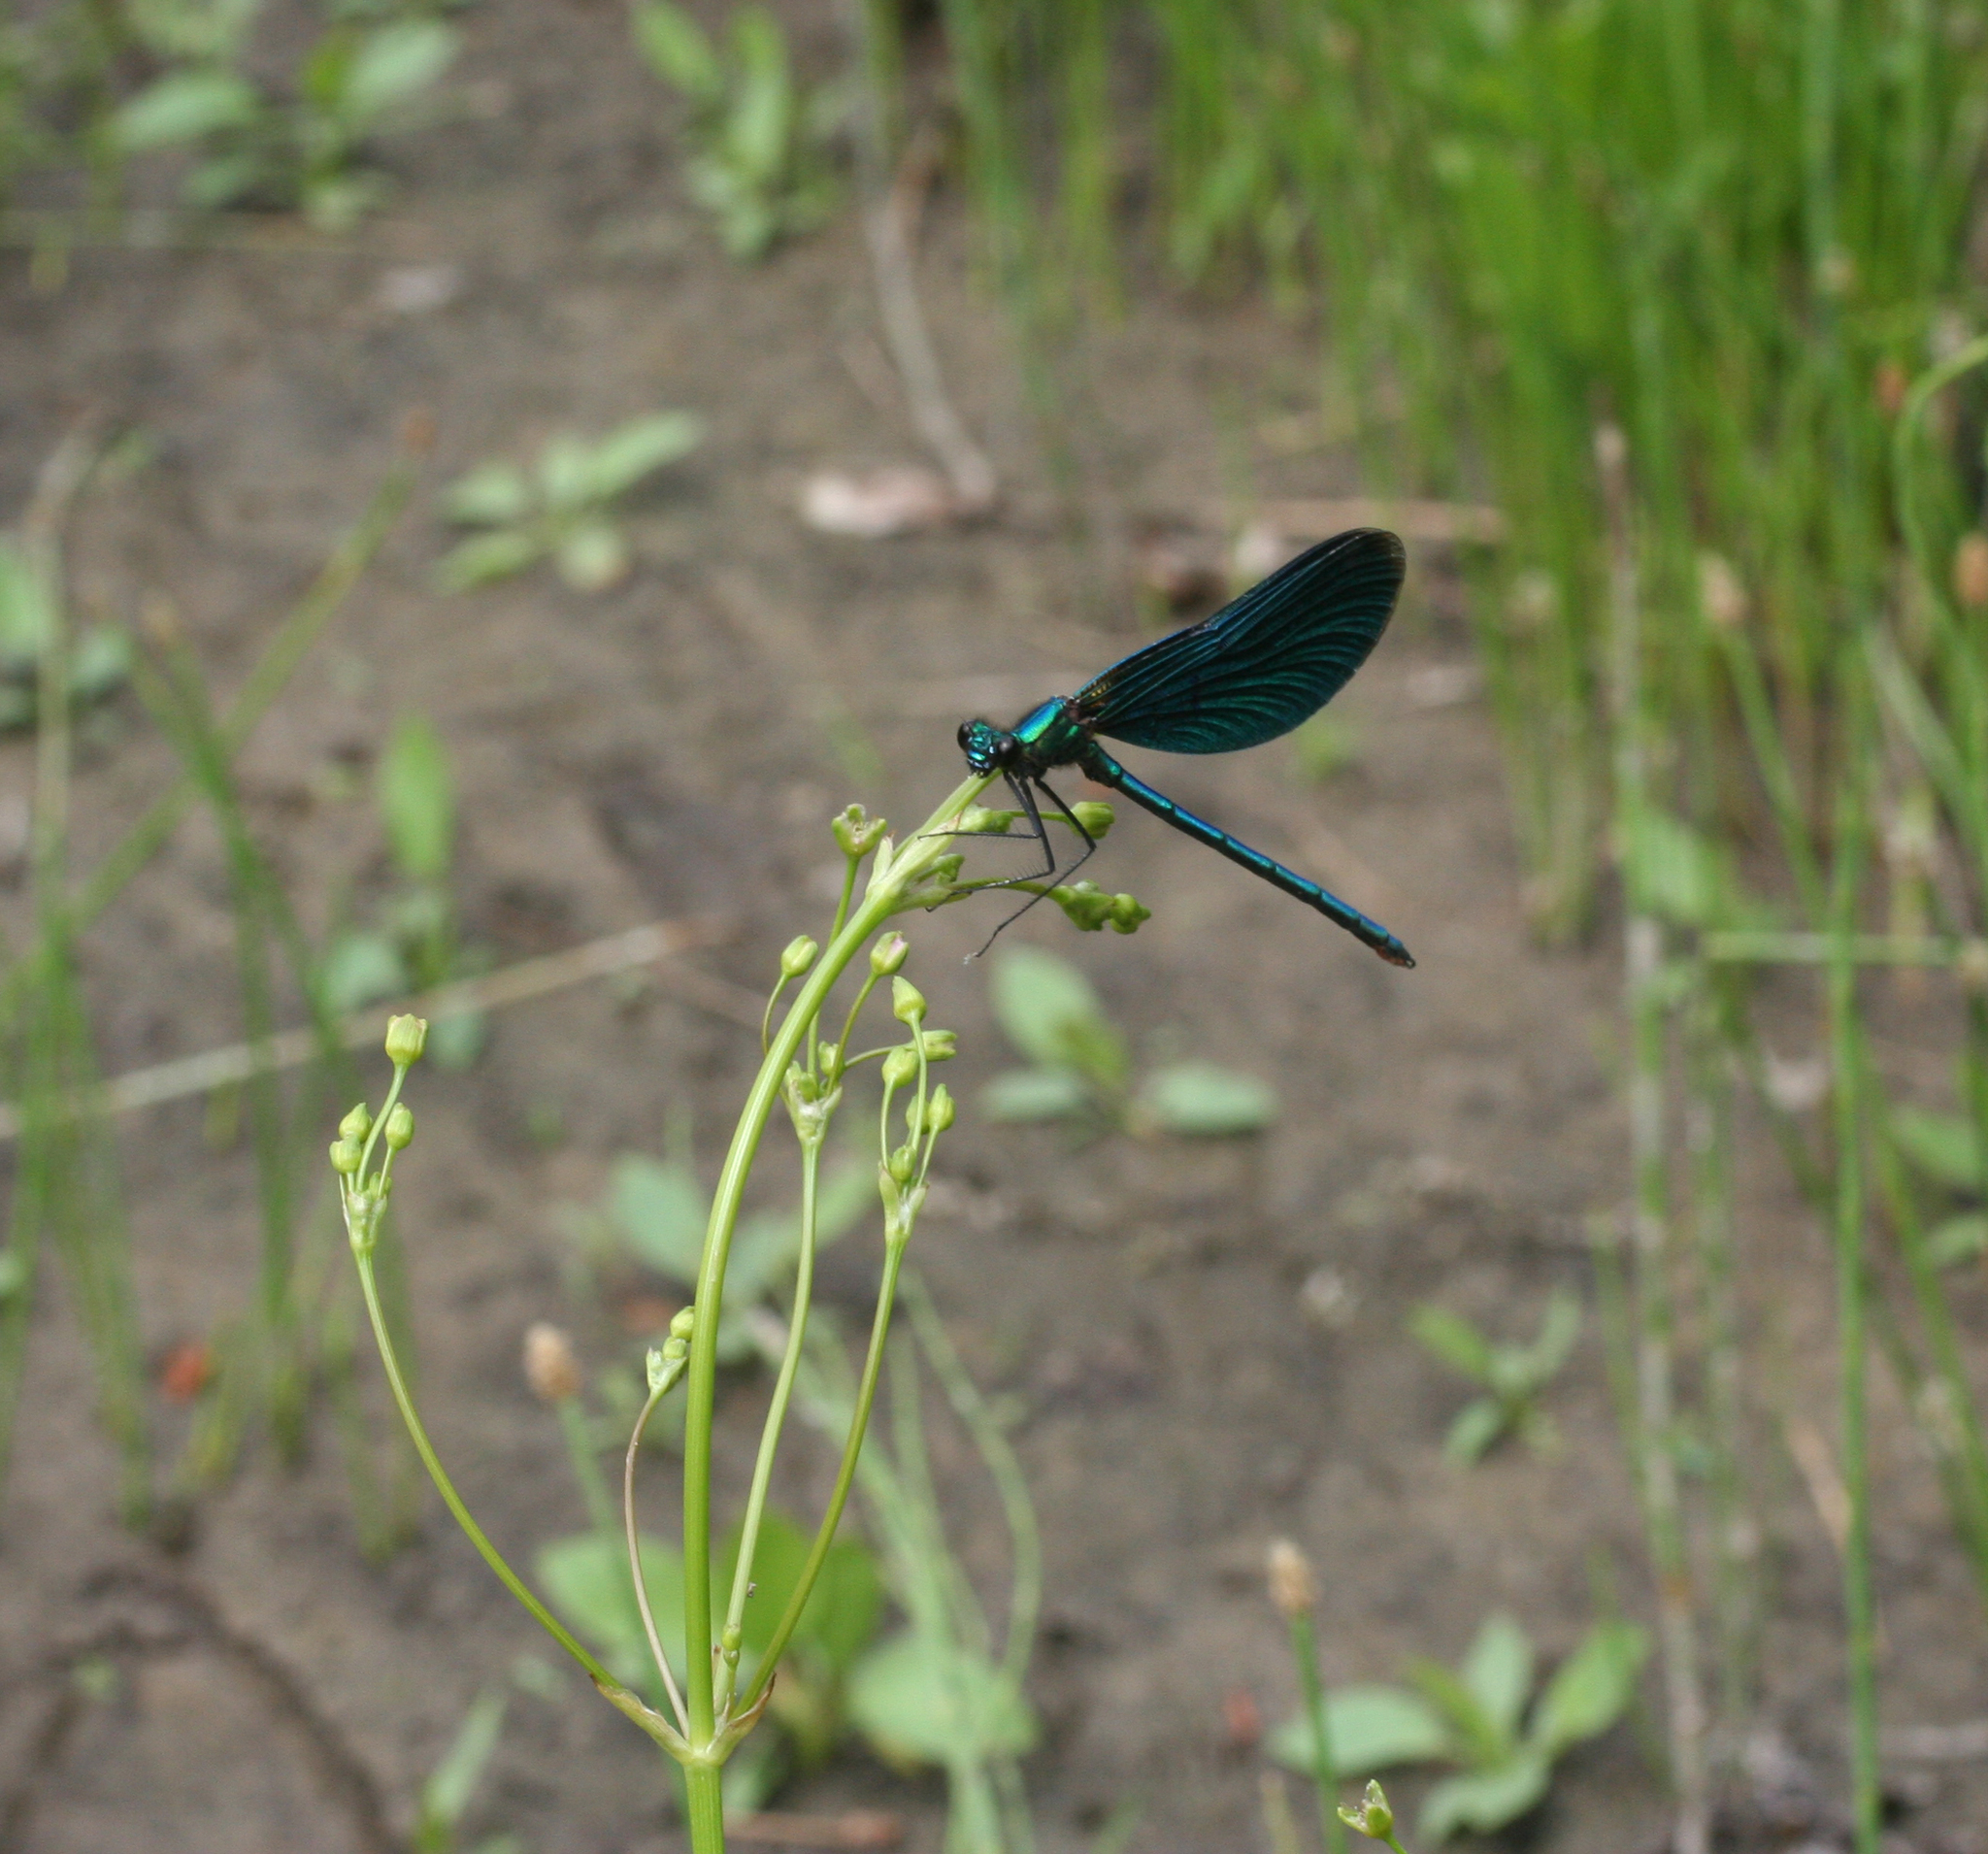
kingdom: Plantae
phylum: Tracheophyta
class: Liliopsida
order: Alismatales
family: Alismataceae
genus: Alisma
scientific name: Alisma plantago-aquatica
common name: Water-plantain
